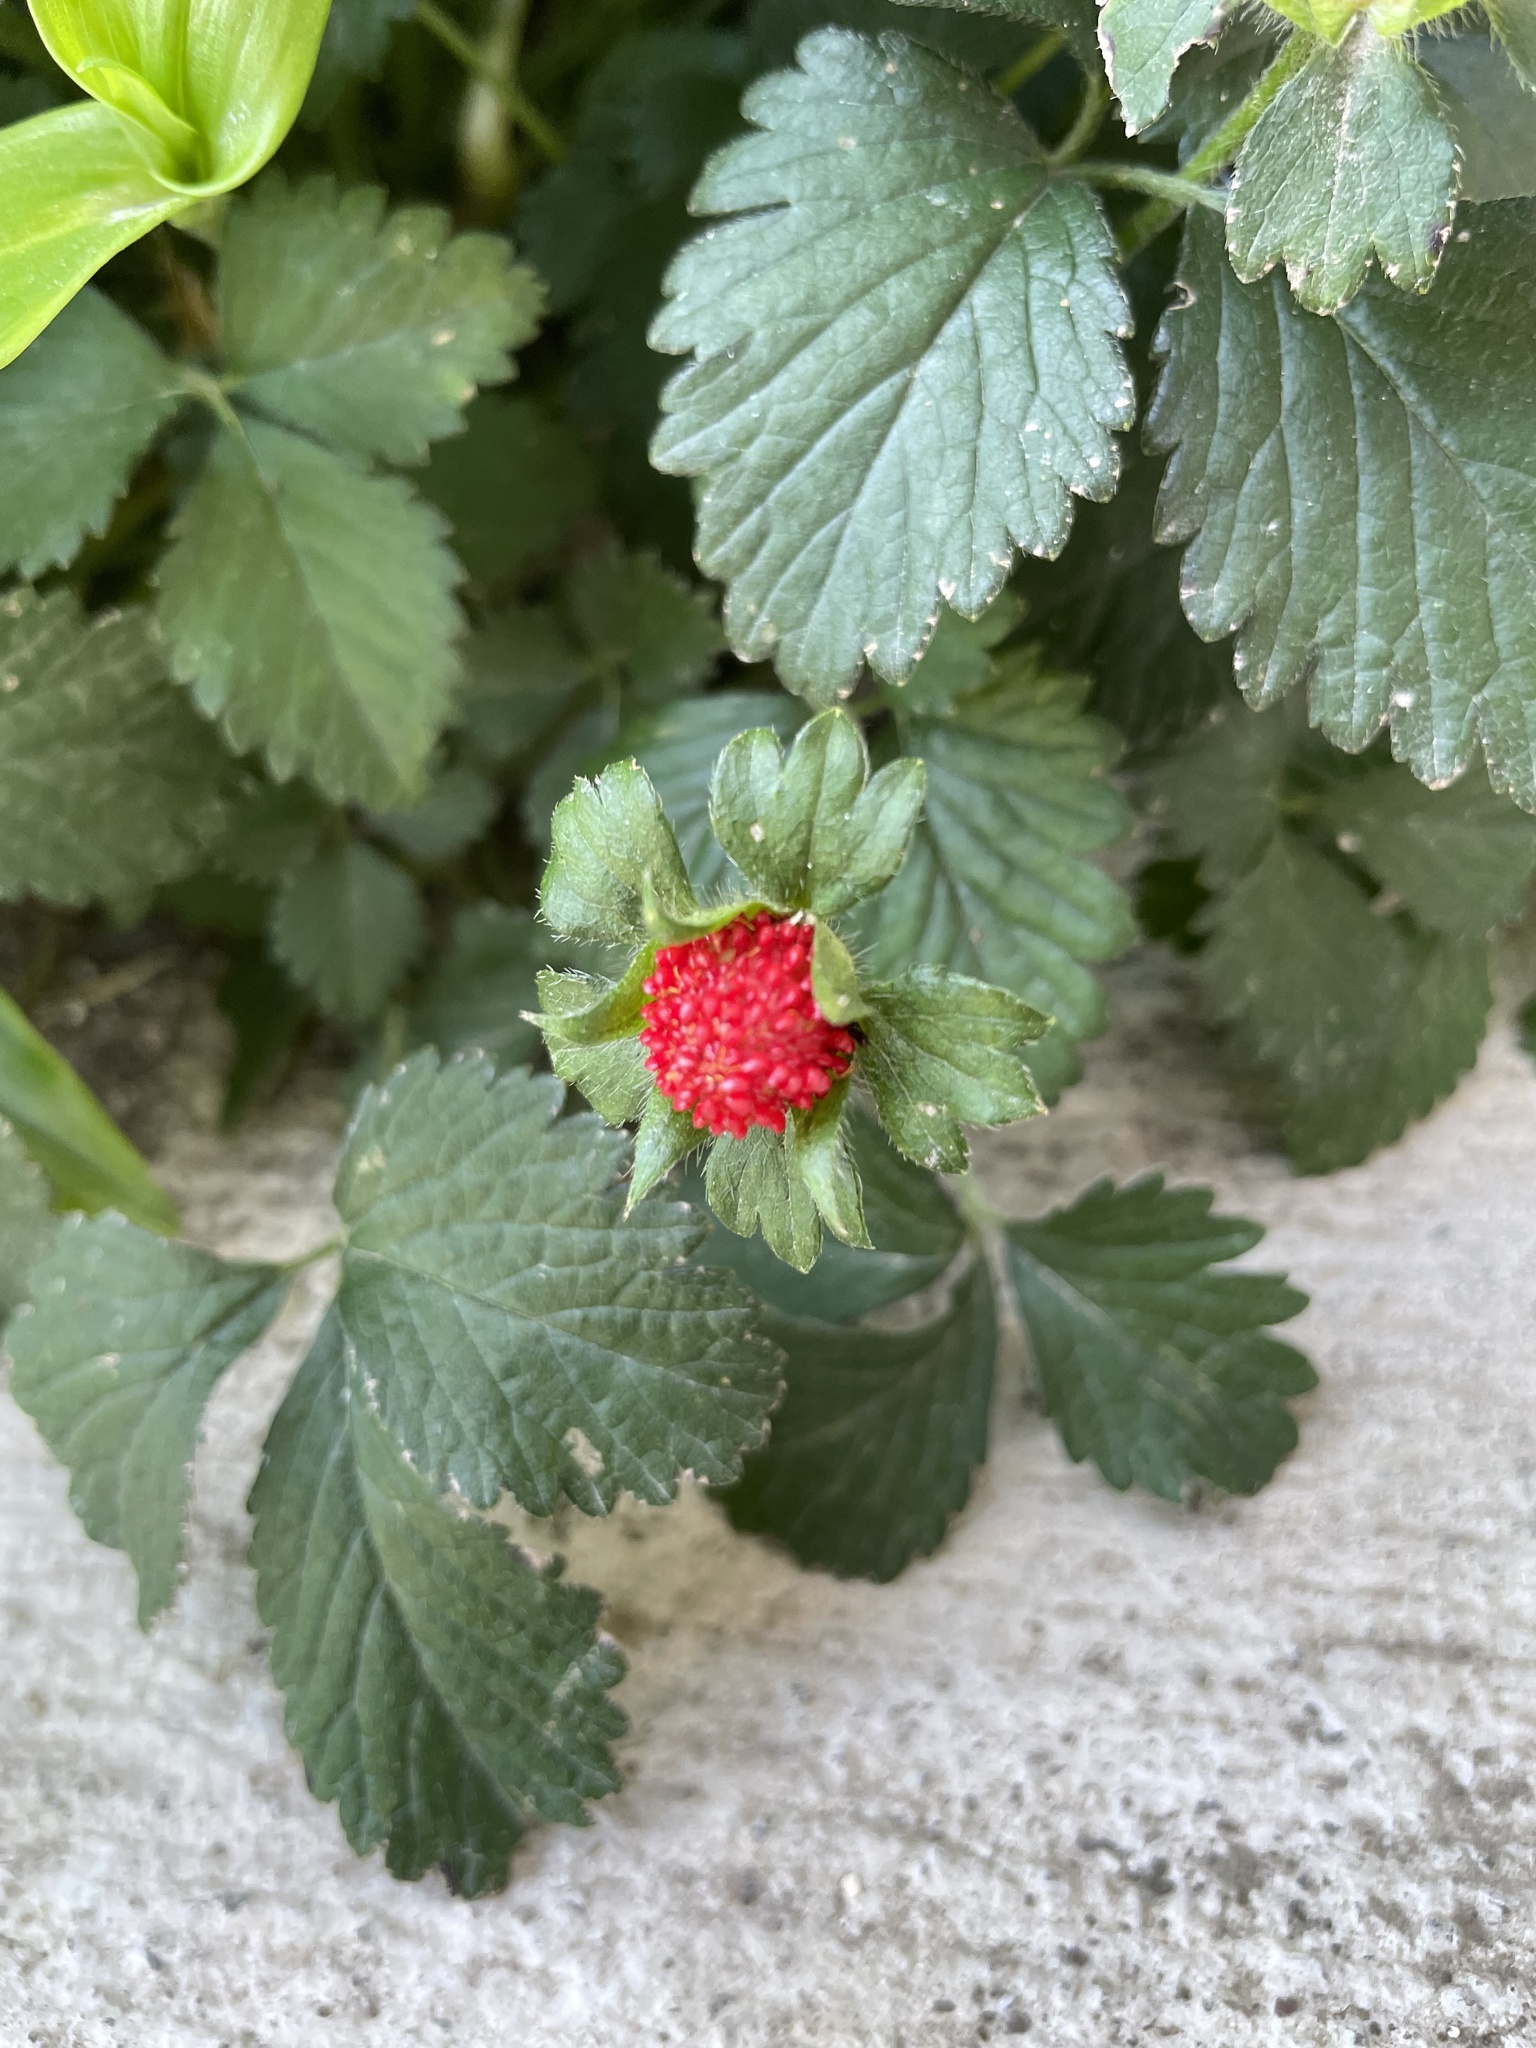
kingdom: Plantae
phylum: Tracheophyta
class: Magnoliopsida
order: Rosales
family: Rosaceae
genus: Potentilla
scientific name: Potentilla indica
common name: Yellow-flowered strawberry
